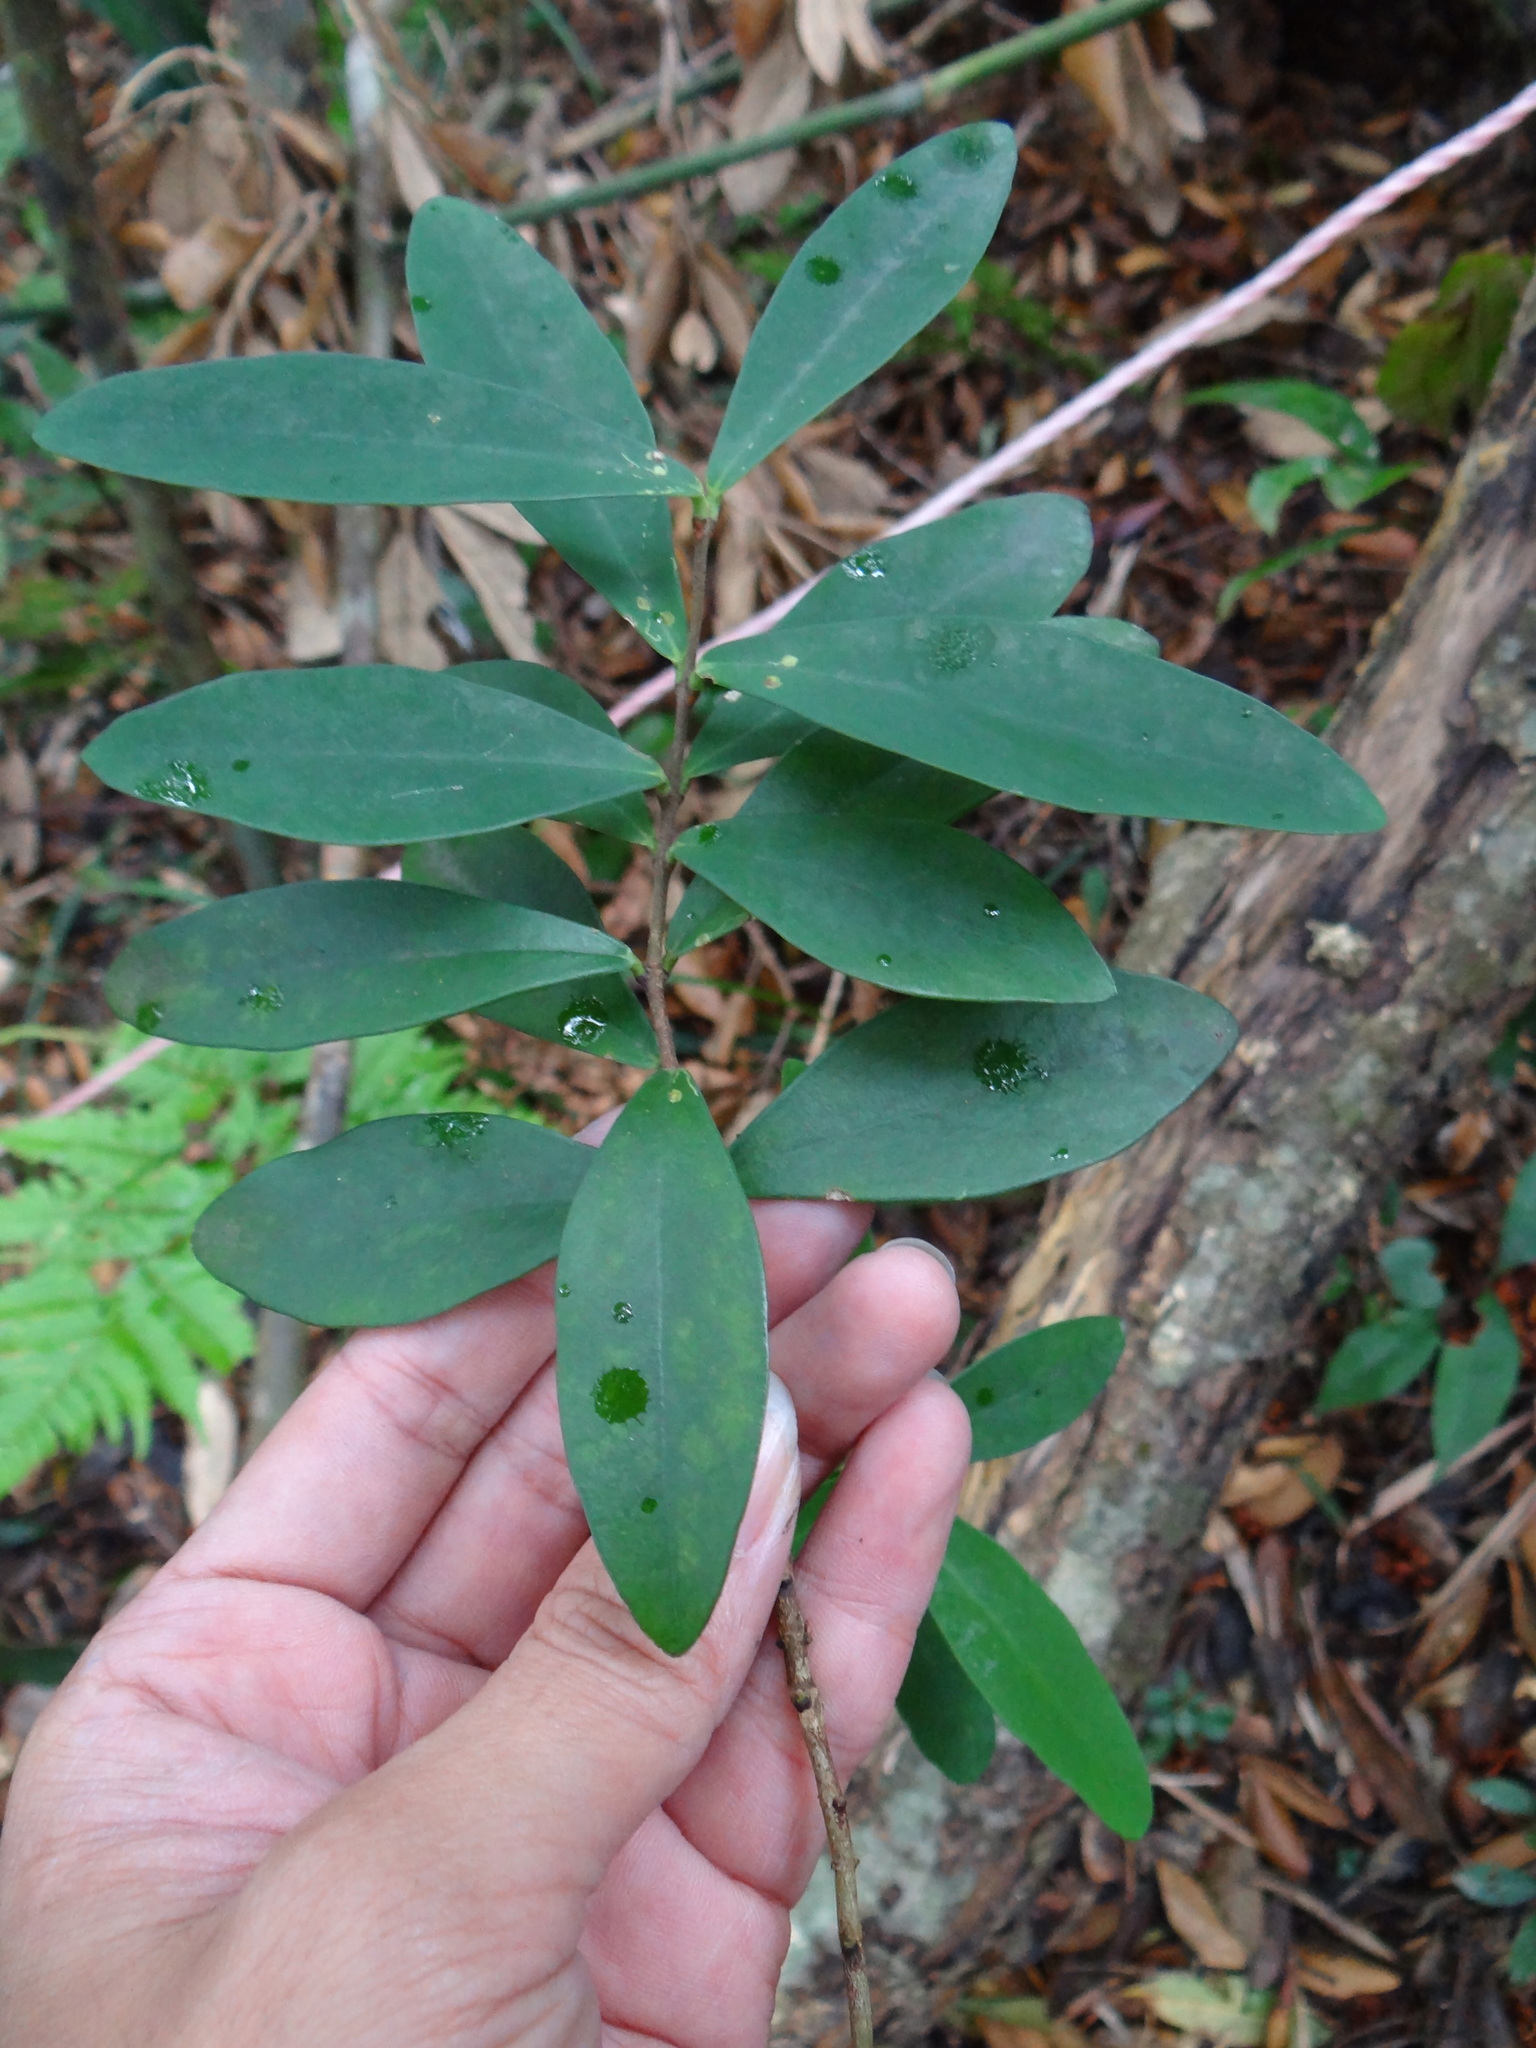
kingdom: Plantae
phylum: Tracheophyta
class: Magnoliopsida
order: Malvales
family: Thymelaeaceae
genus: Wikstroemia
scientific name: Wikstroemia taiwanensis
